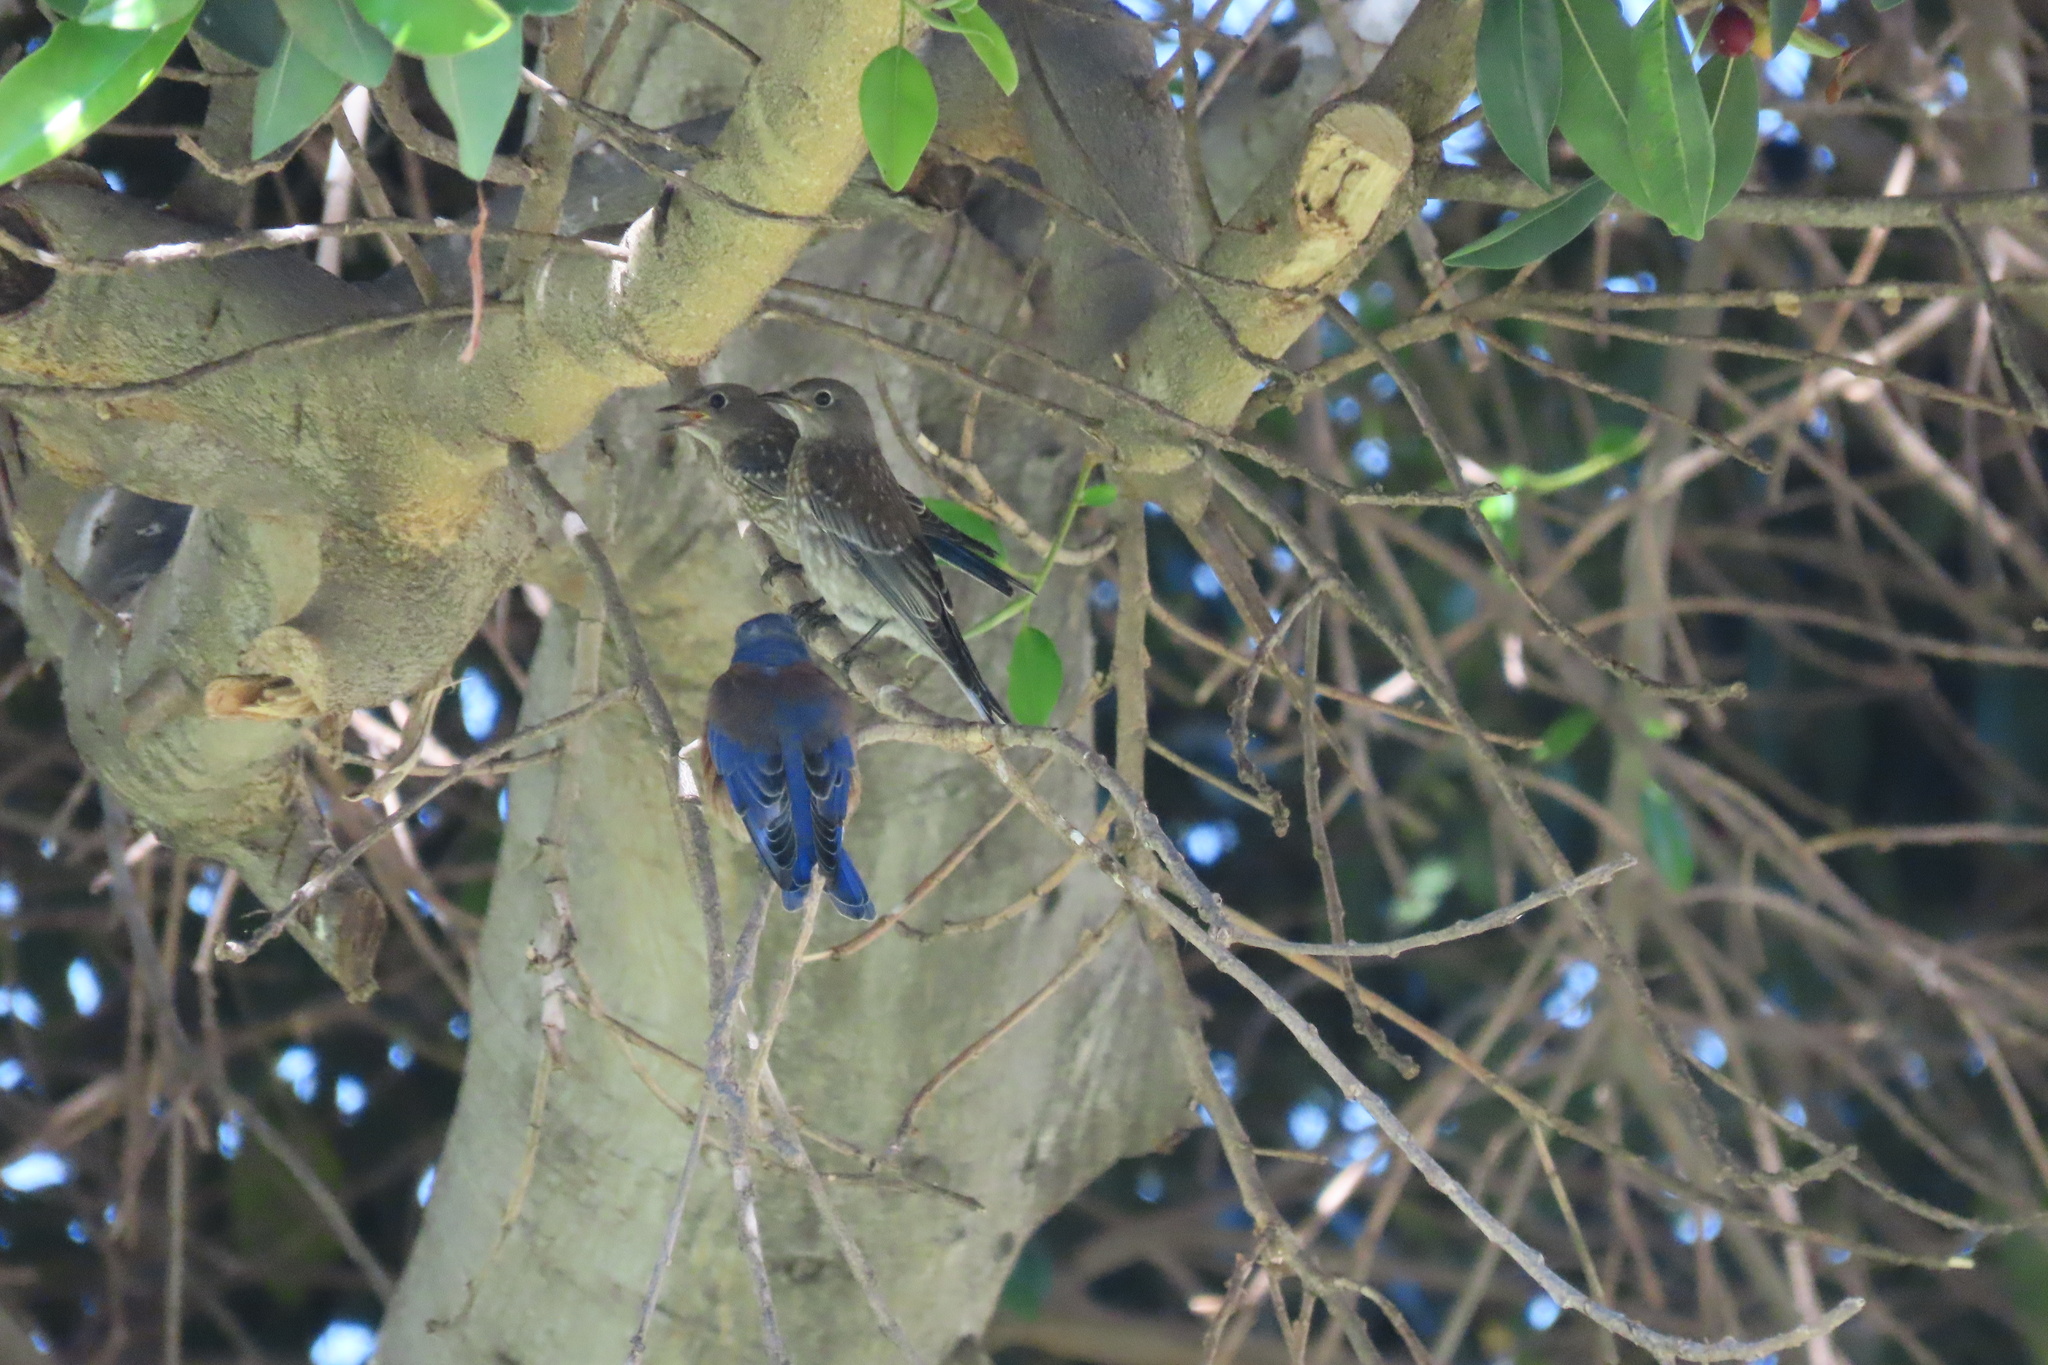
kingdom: Animalia
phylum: Chordata
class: Aves
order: Passeriformes
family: Turdidae
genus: Sialia
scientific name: Sialia mexicana
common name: Western bluebird
